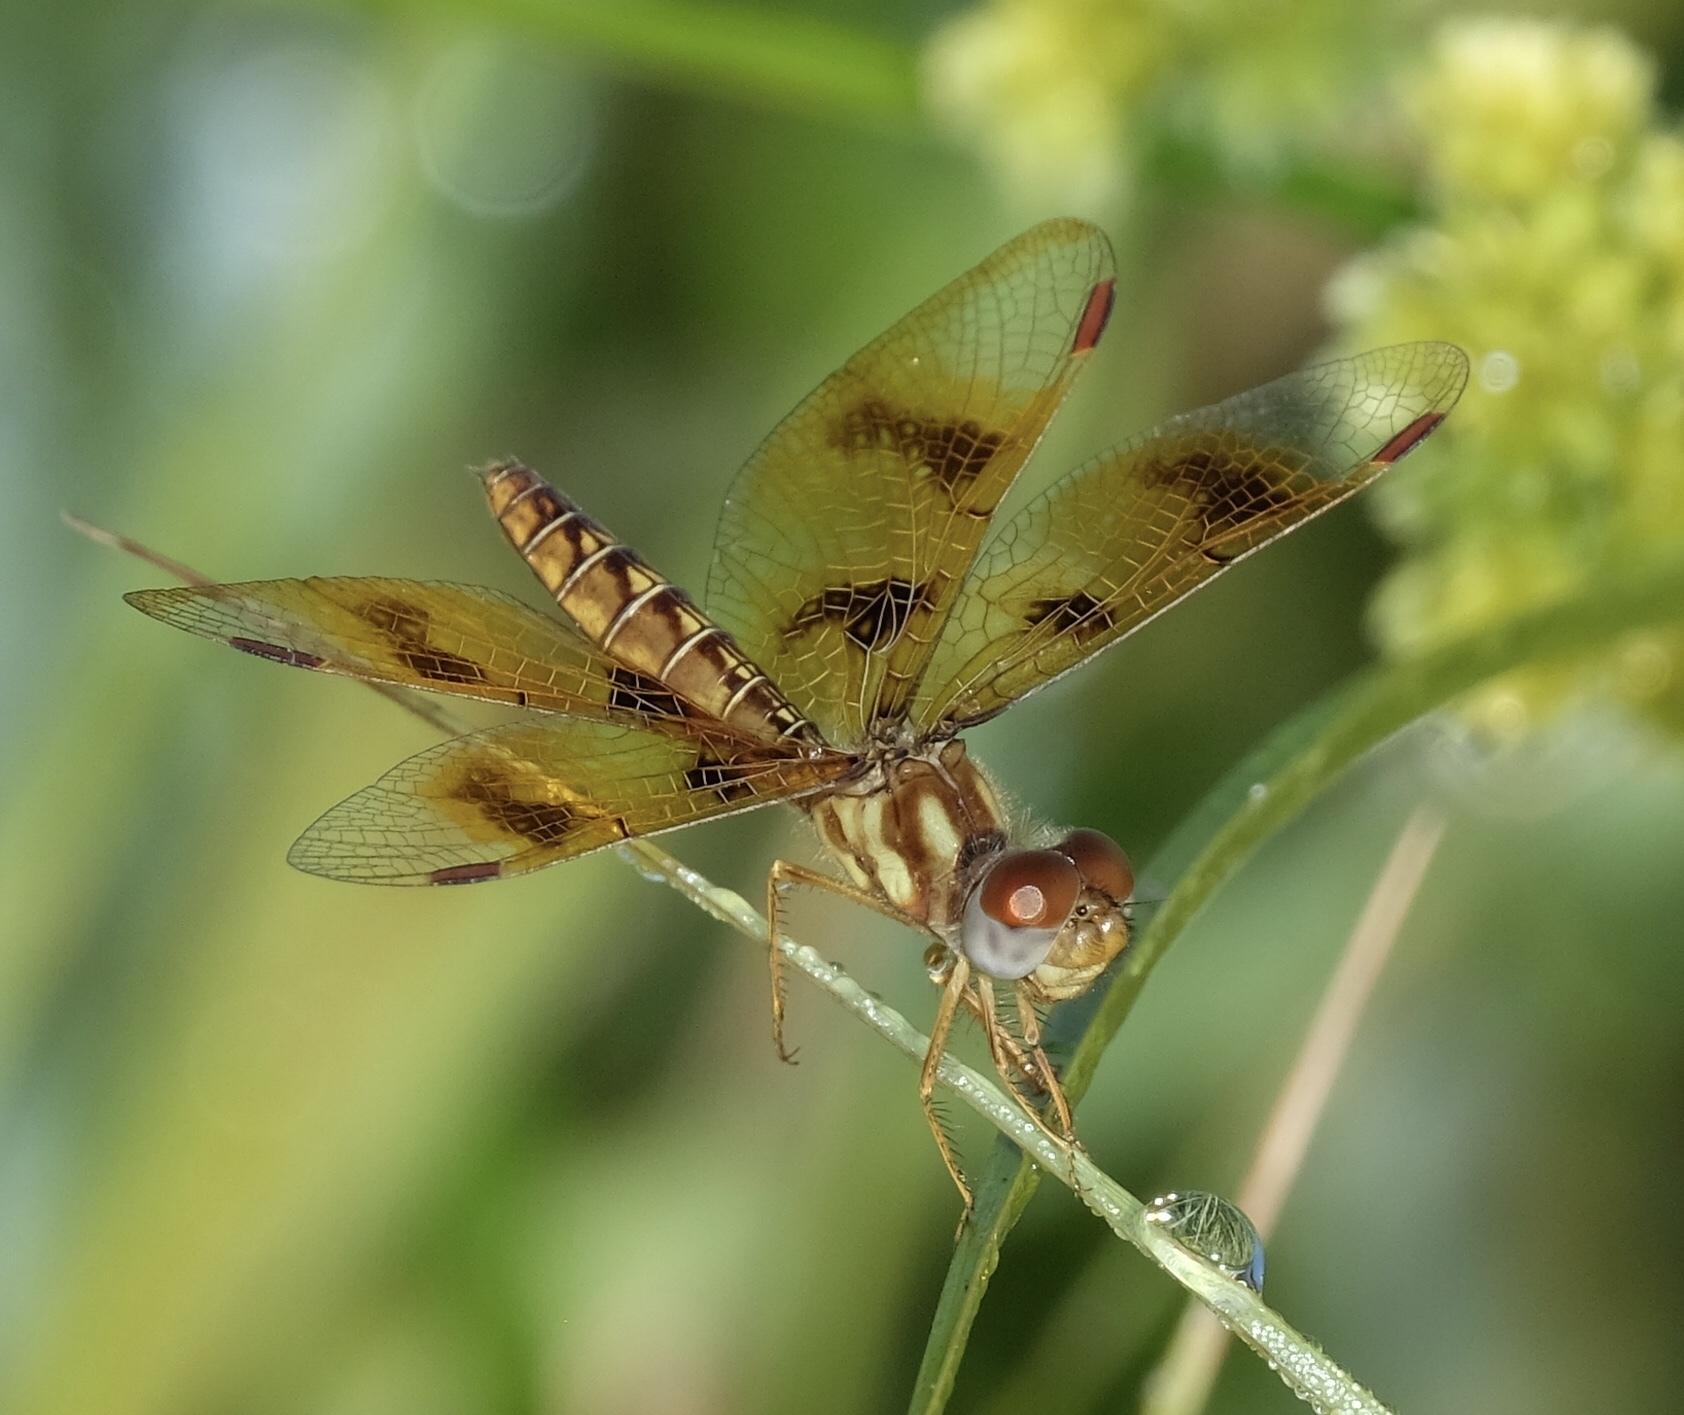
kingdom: Animalia
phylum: Arthropoda
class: Insecta
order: Odonata
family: Libellulidae
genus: Perithemis
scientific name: Perithemis tenera
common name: Eastern amberwing
